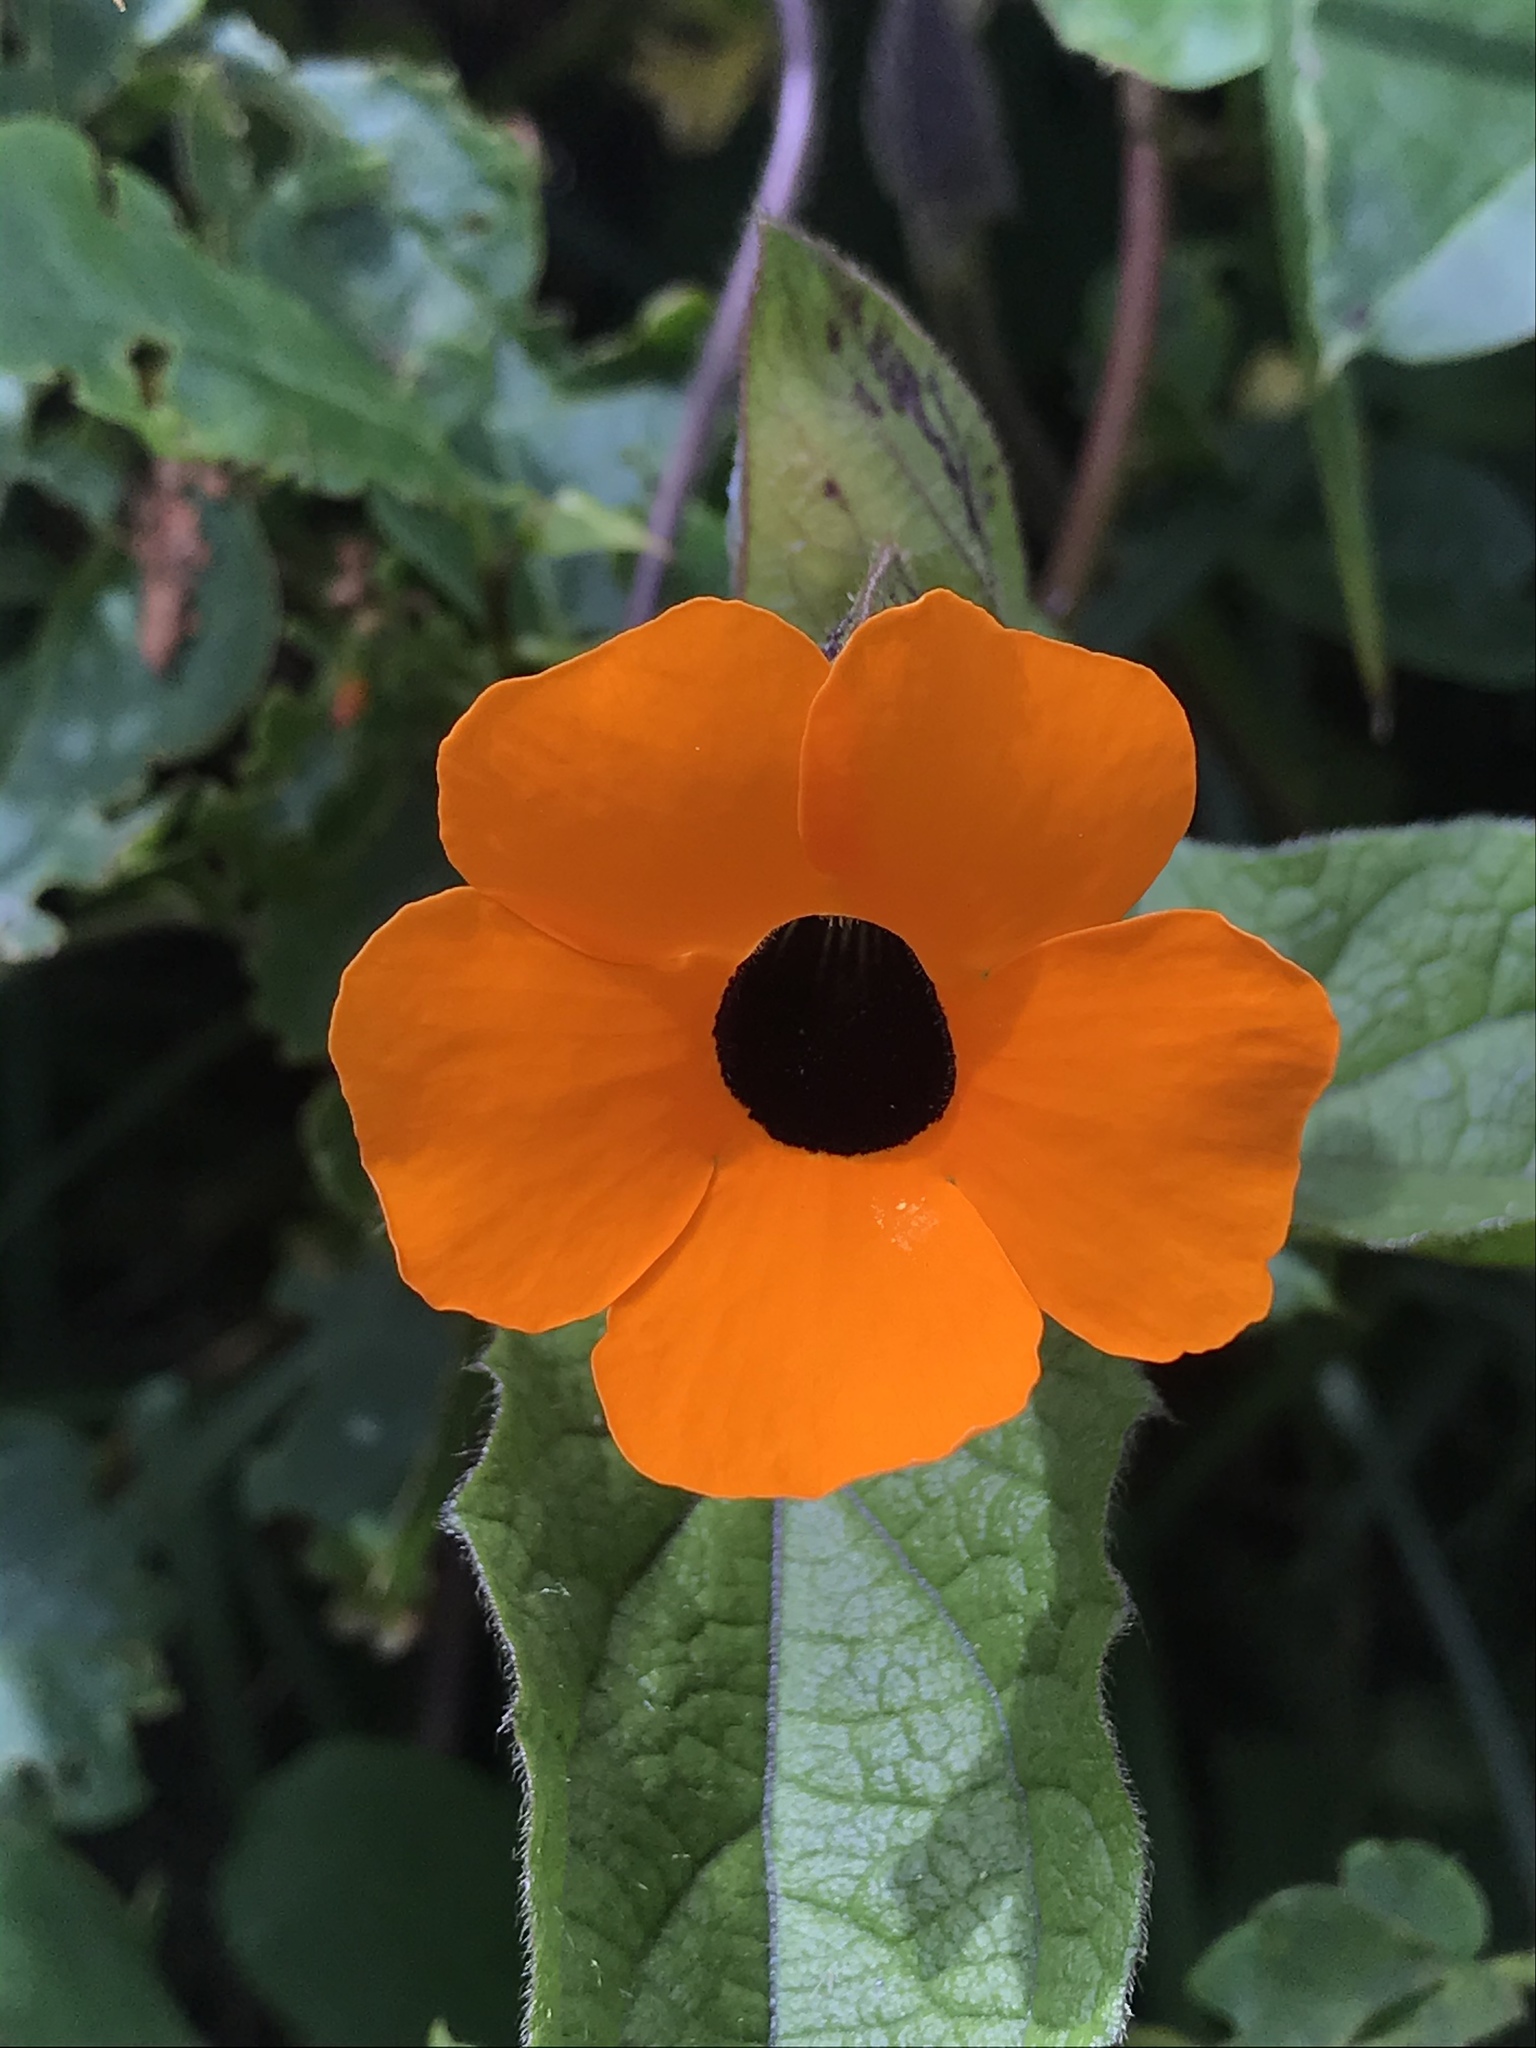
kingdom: Plantae
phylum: Tracheophyta
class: Magnoliopsida
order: Lamiales
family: Acanthaceae
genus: Thunbergia
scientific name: Thunbergia alata
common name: Blackeyed susan vine
